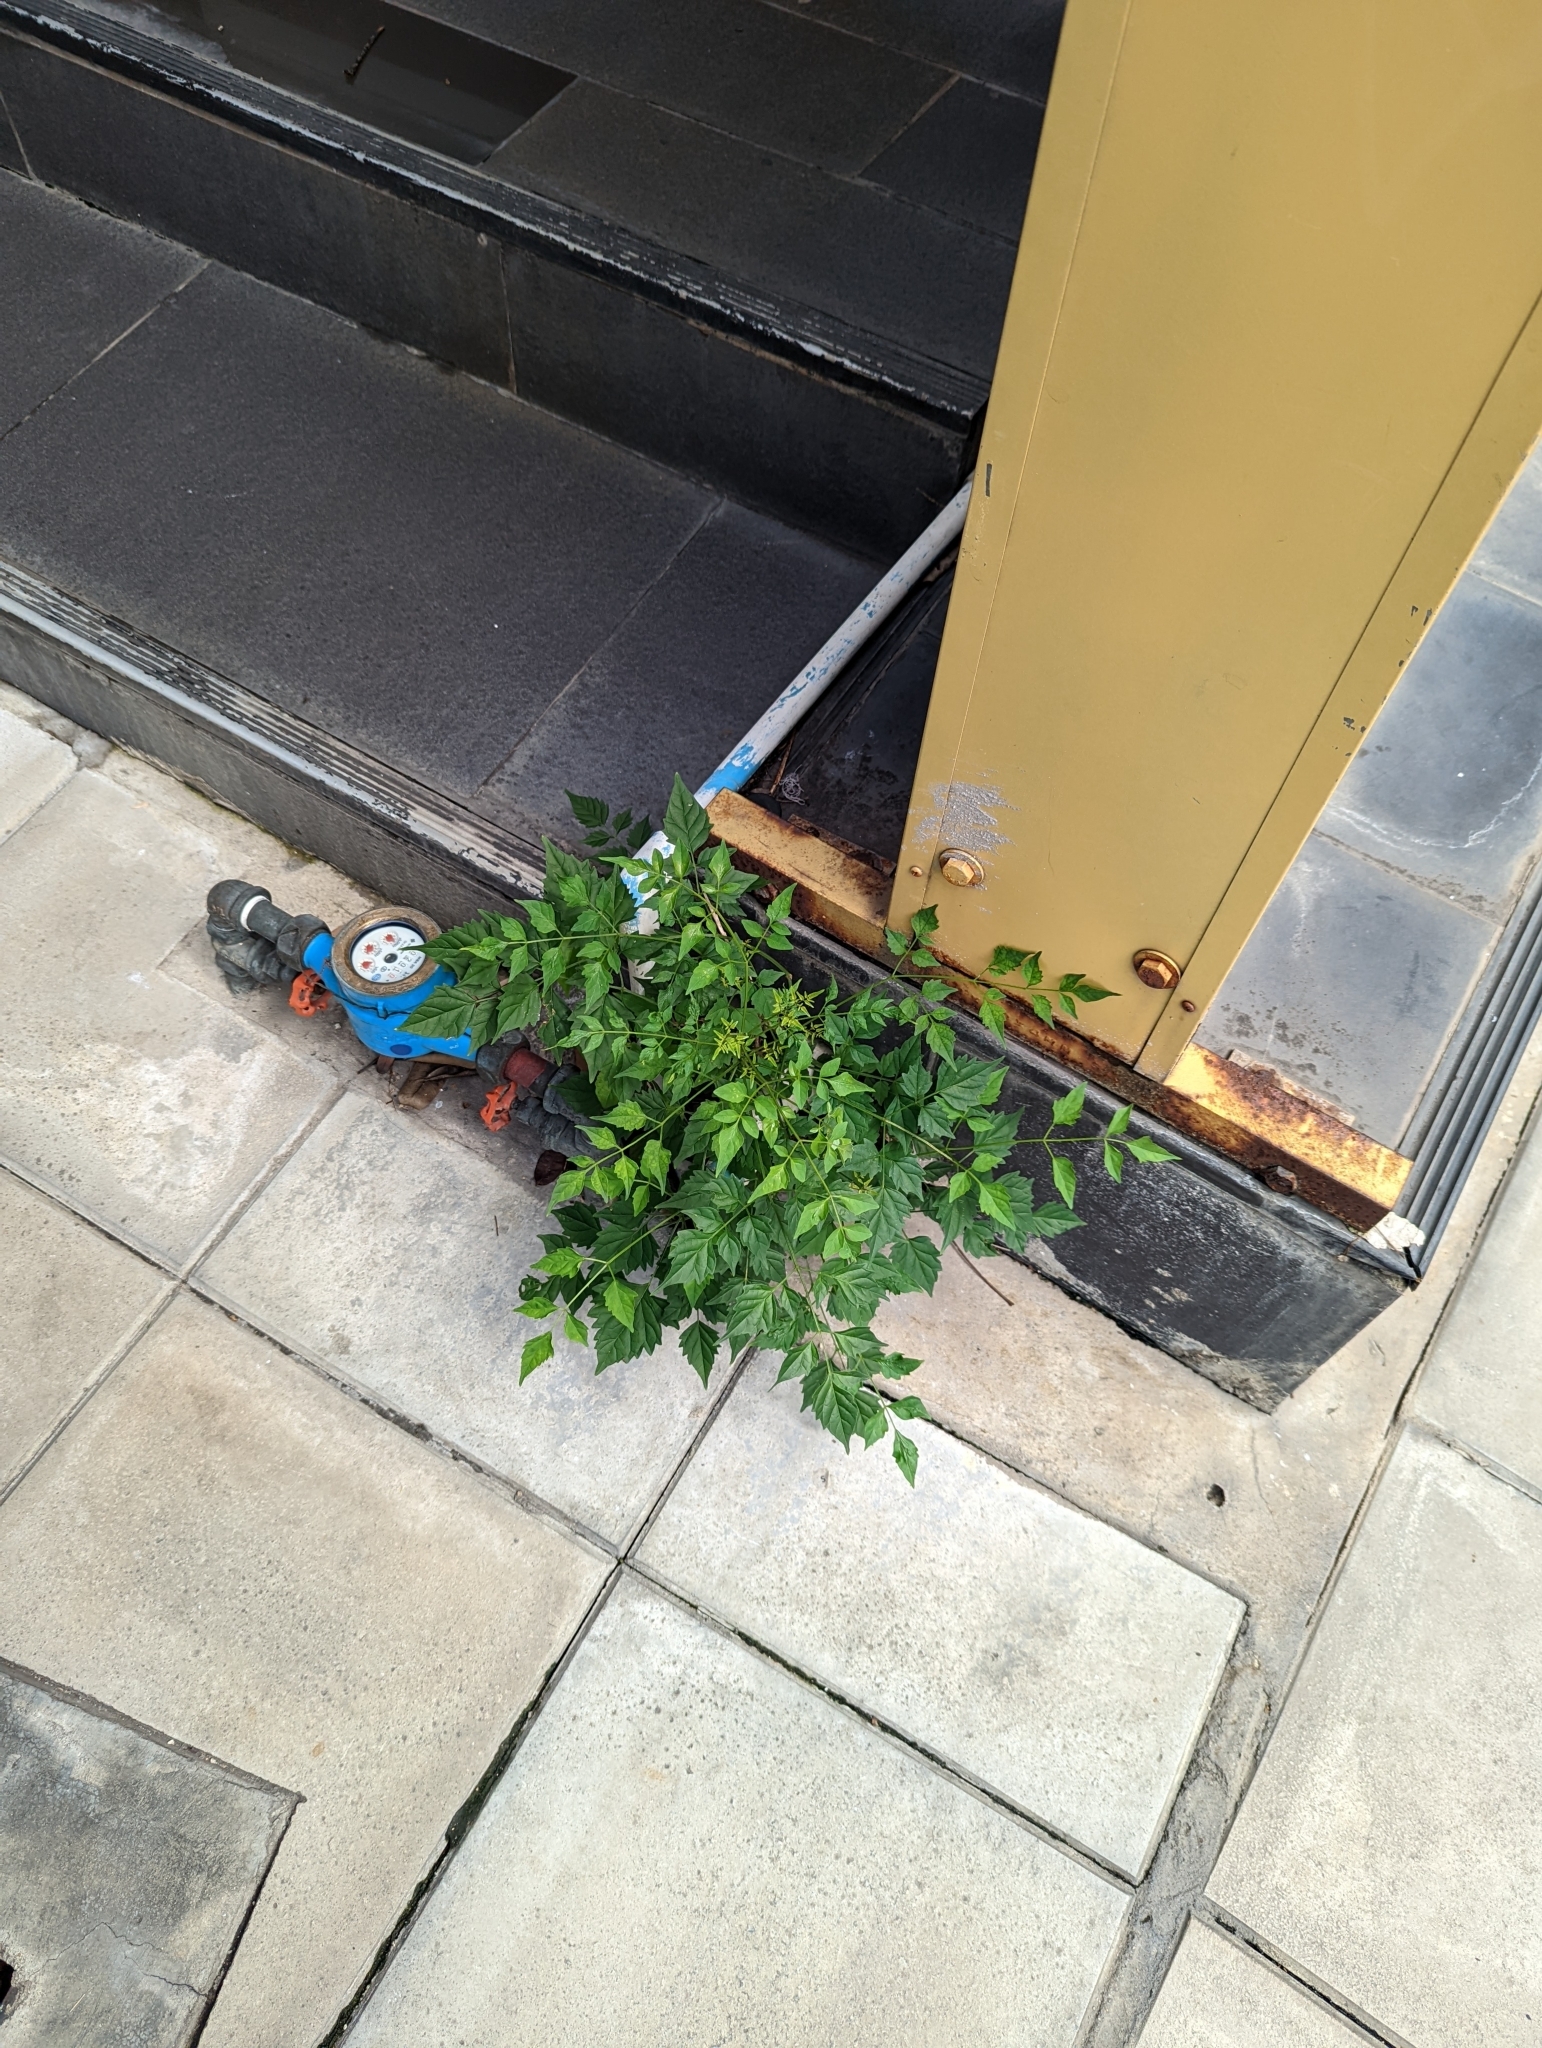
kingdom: Plantae
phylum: Tracheophyta
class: Magnoliopsida
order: Lamiales
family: Bignoniaceae
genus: Millingtonia
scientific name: Millingtonia hortensis
